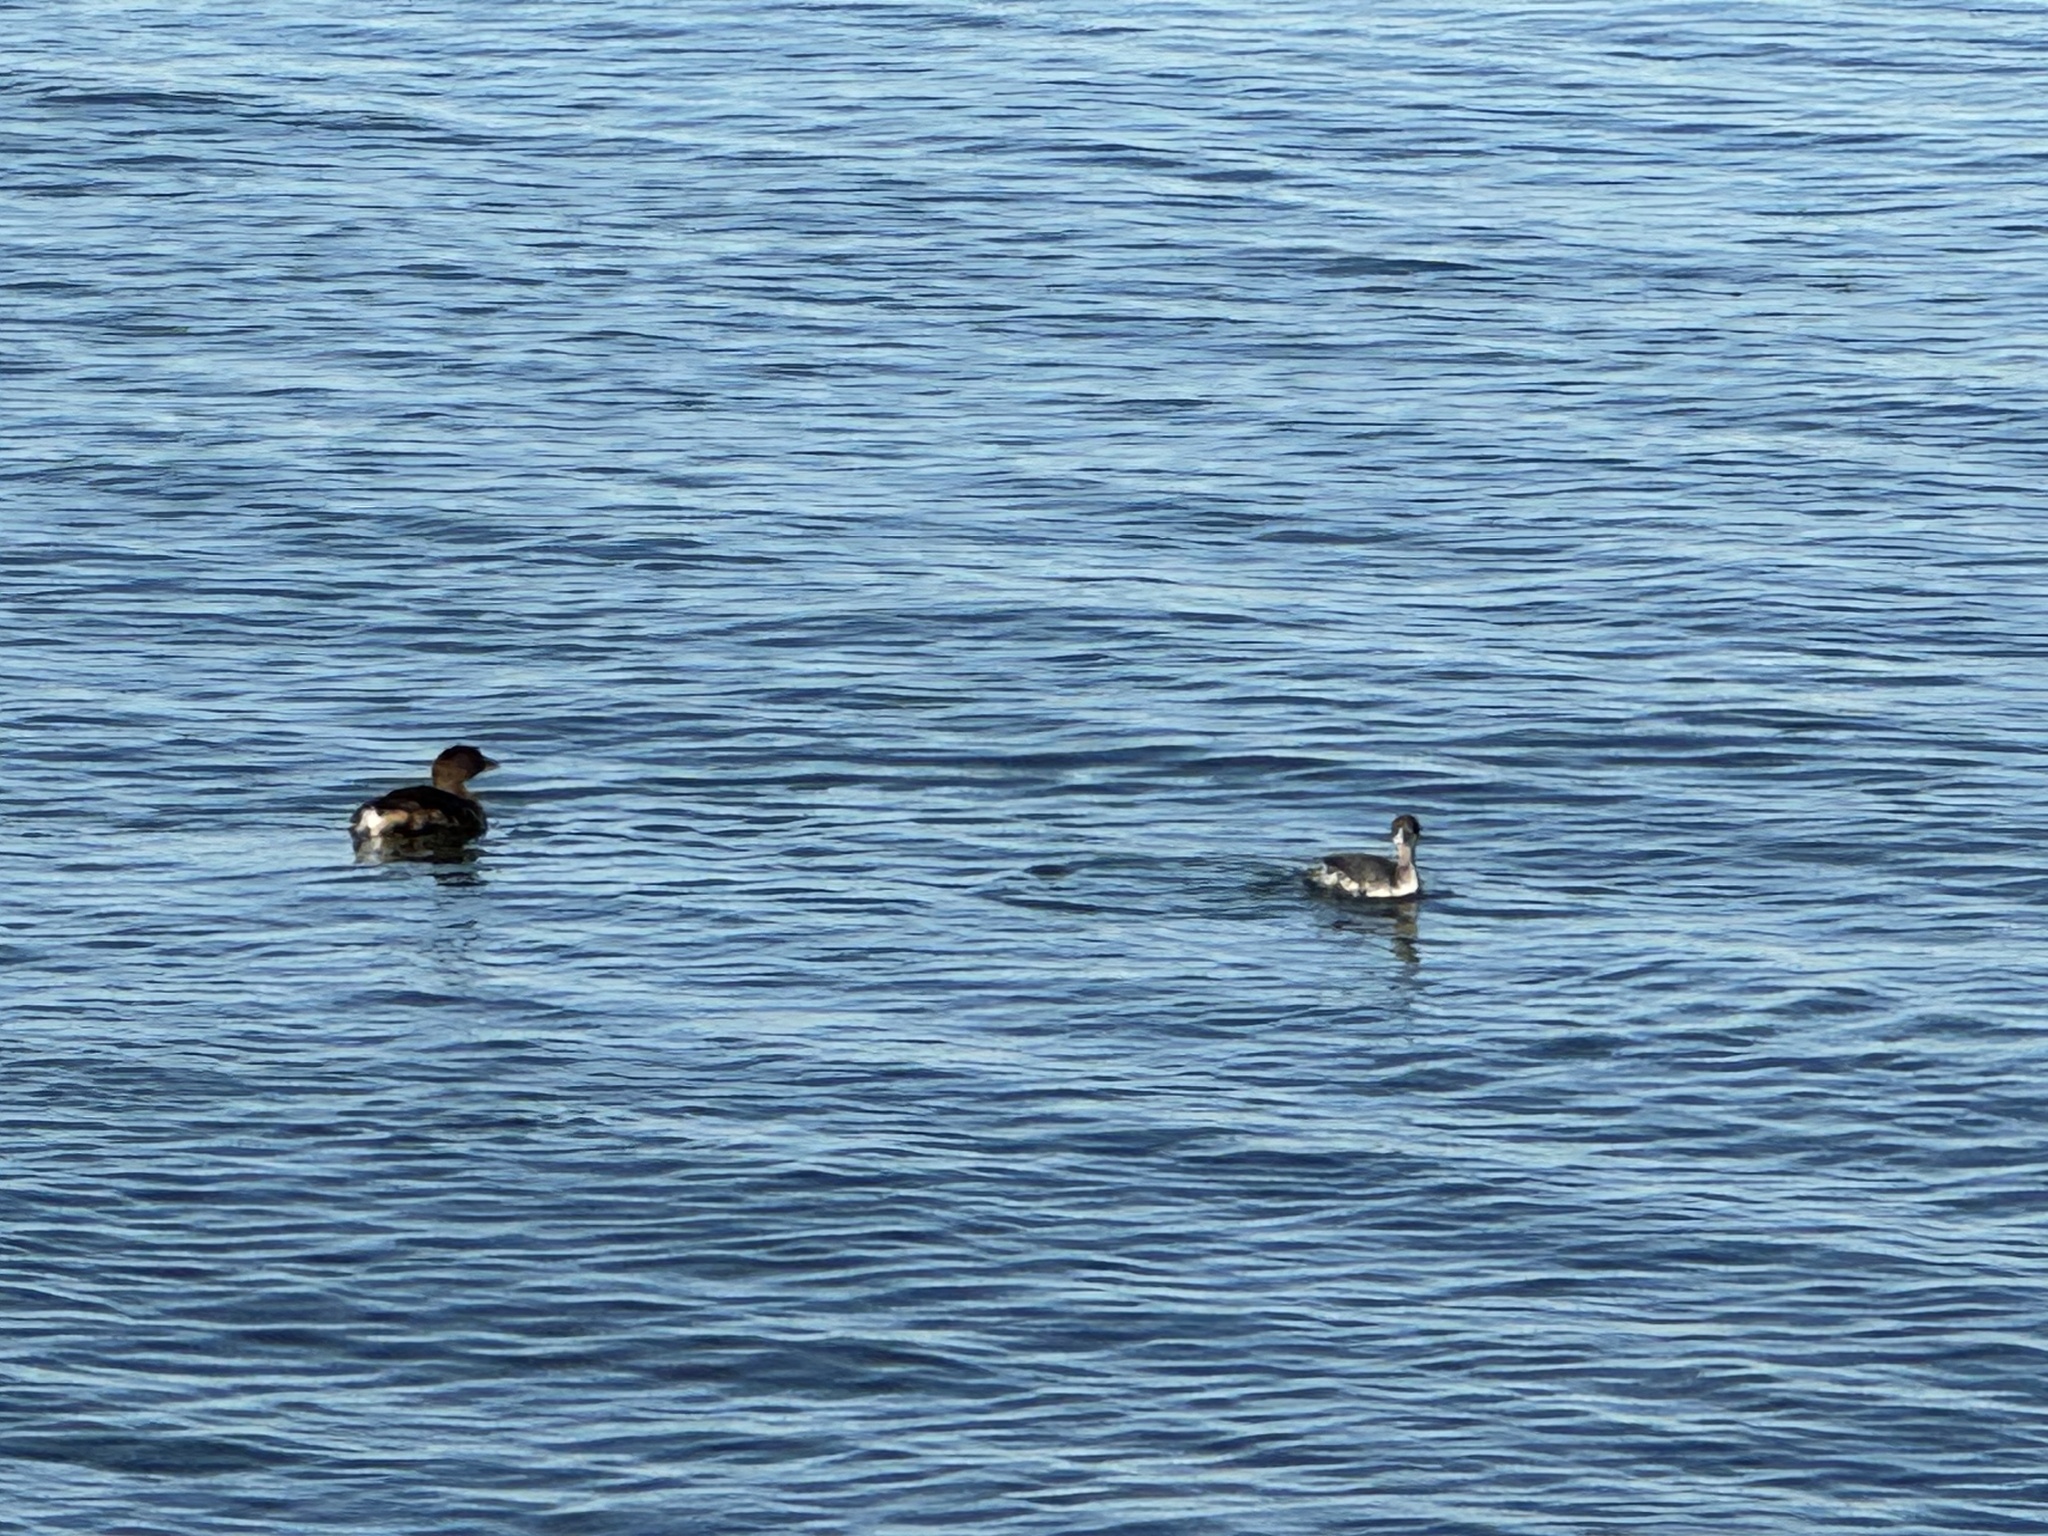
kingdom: Animalia
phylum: Chordata
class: Aves
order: Podicipediformes
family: Podicipedidae
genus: Podilymbus
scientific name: Podilymbus podiceps
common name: Pied-billed grebe
